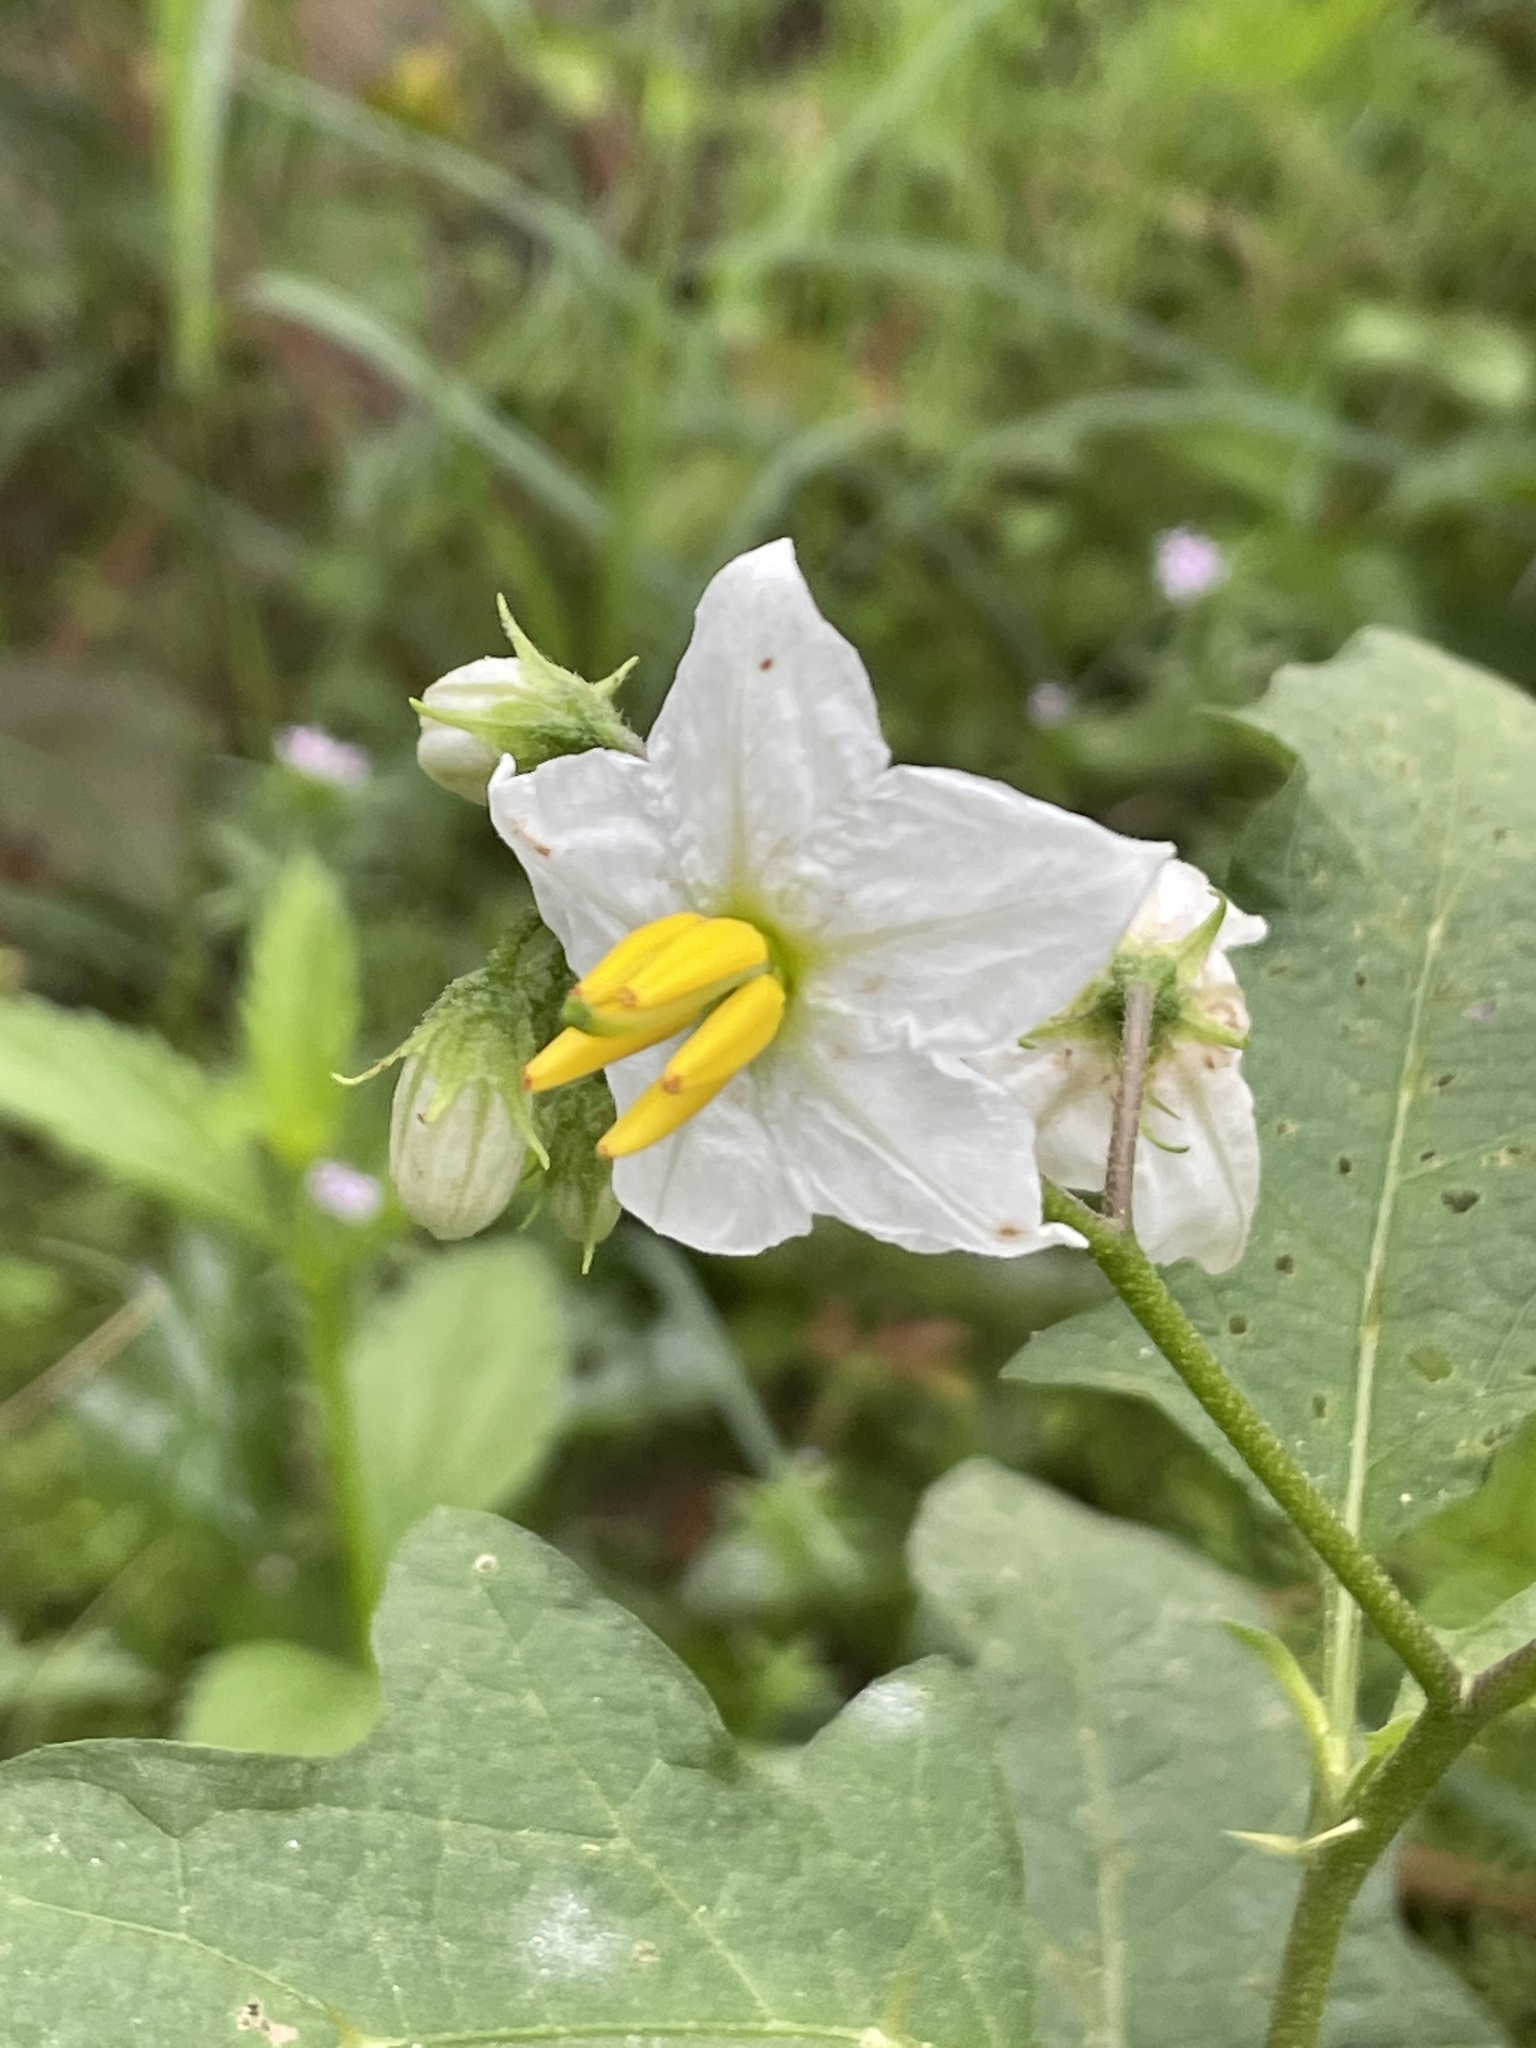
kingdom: Plantae
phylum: Tracheophyta
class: Magnoliopsida
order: Solanales
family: Solanaceae
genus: Solanum
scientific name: Solanum carolinense
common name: Horse-nettle
